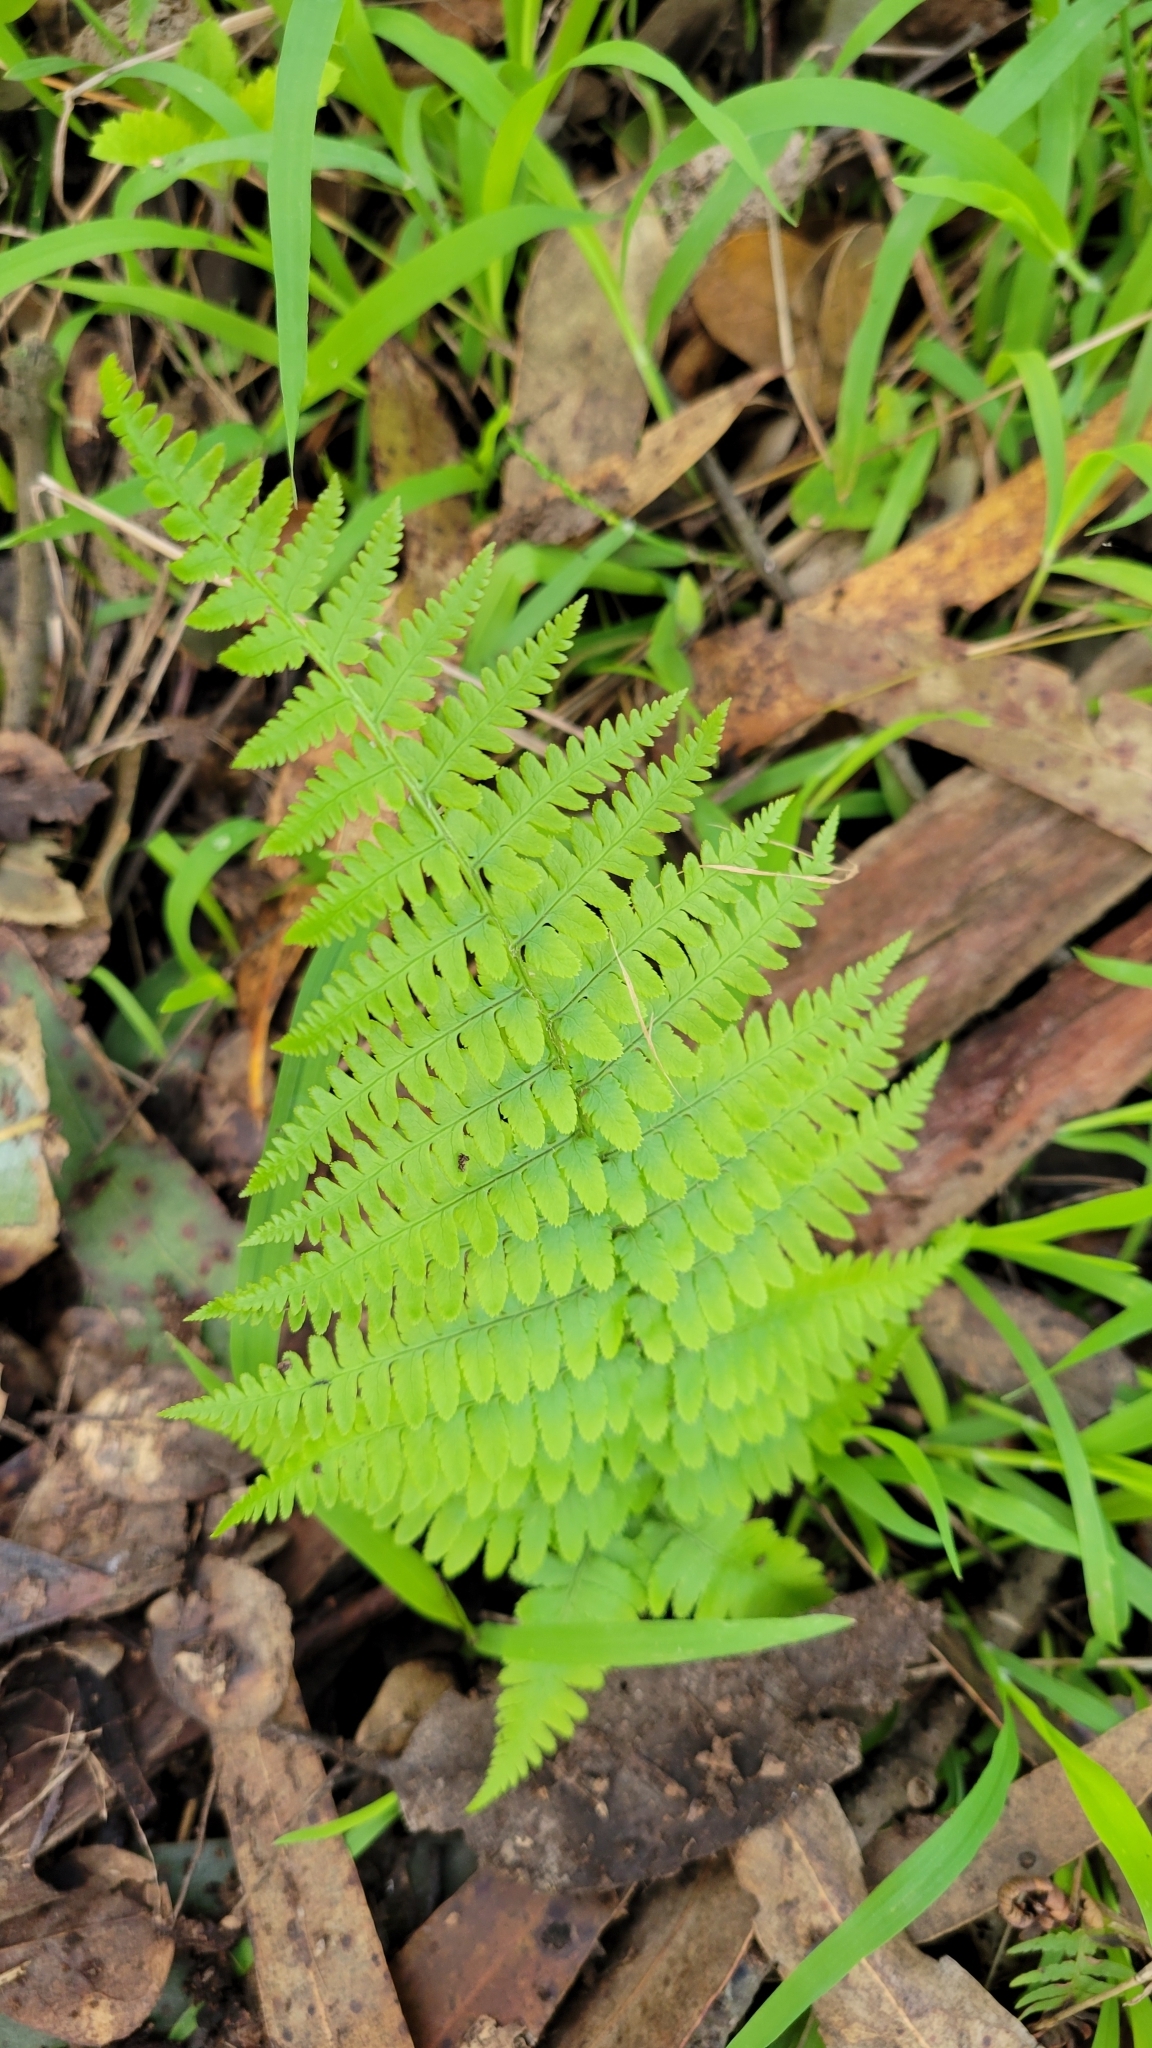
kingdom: Plantae
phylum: Tracheophyta
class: Polypodiopsida
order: Polypodiales
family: Dryopteridaceae
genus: Dryopteris
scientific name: Dryopteris arguta
